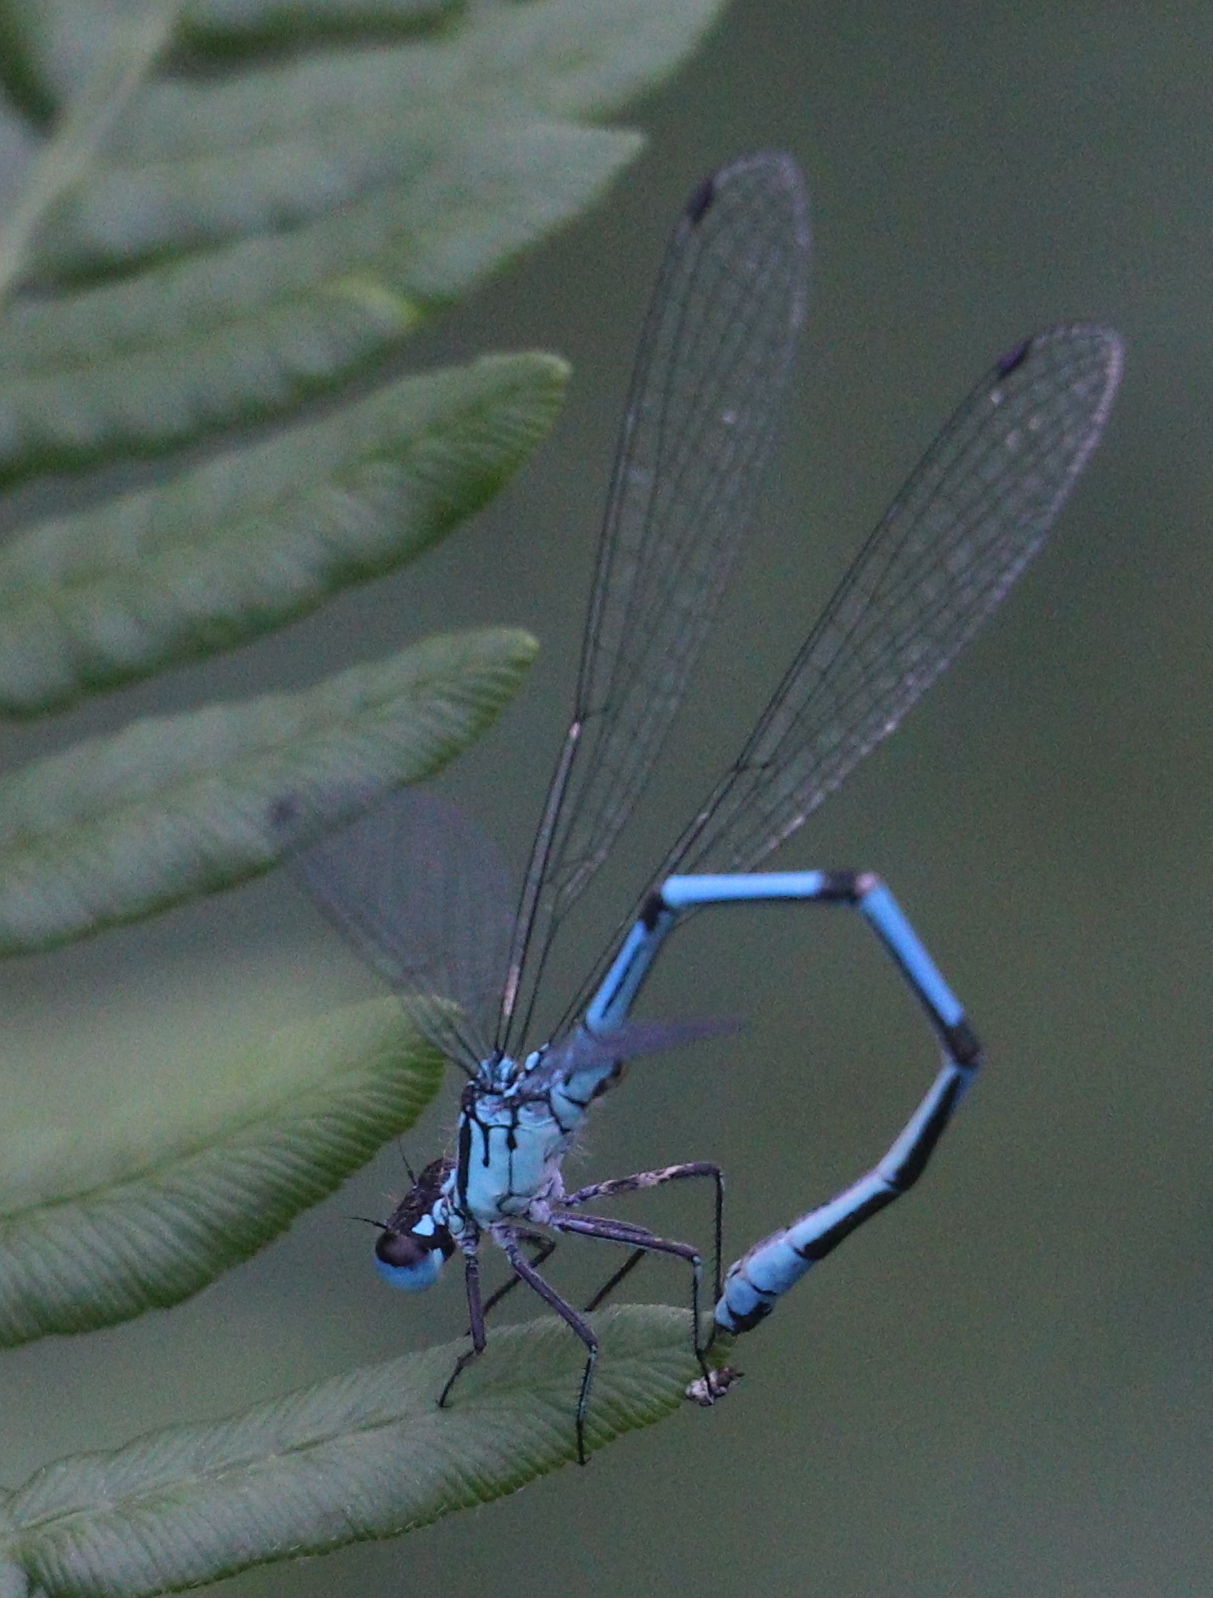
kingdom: Animalia
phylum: Arthropoda
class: Insecta
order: Odonata
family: Coenagrionidae
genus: Coenagrion
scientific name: Coenagrion puella
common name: Azure damselfly
